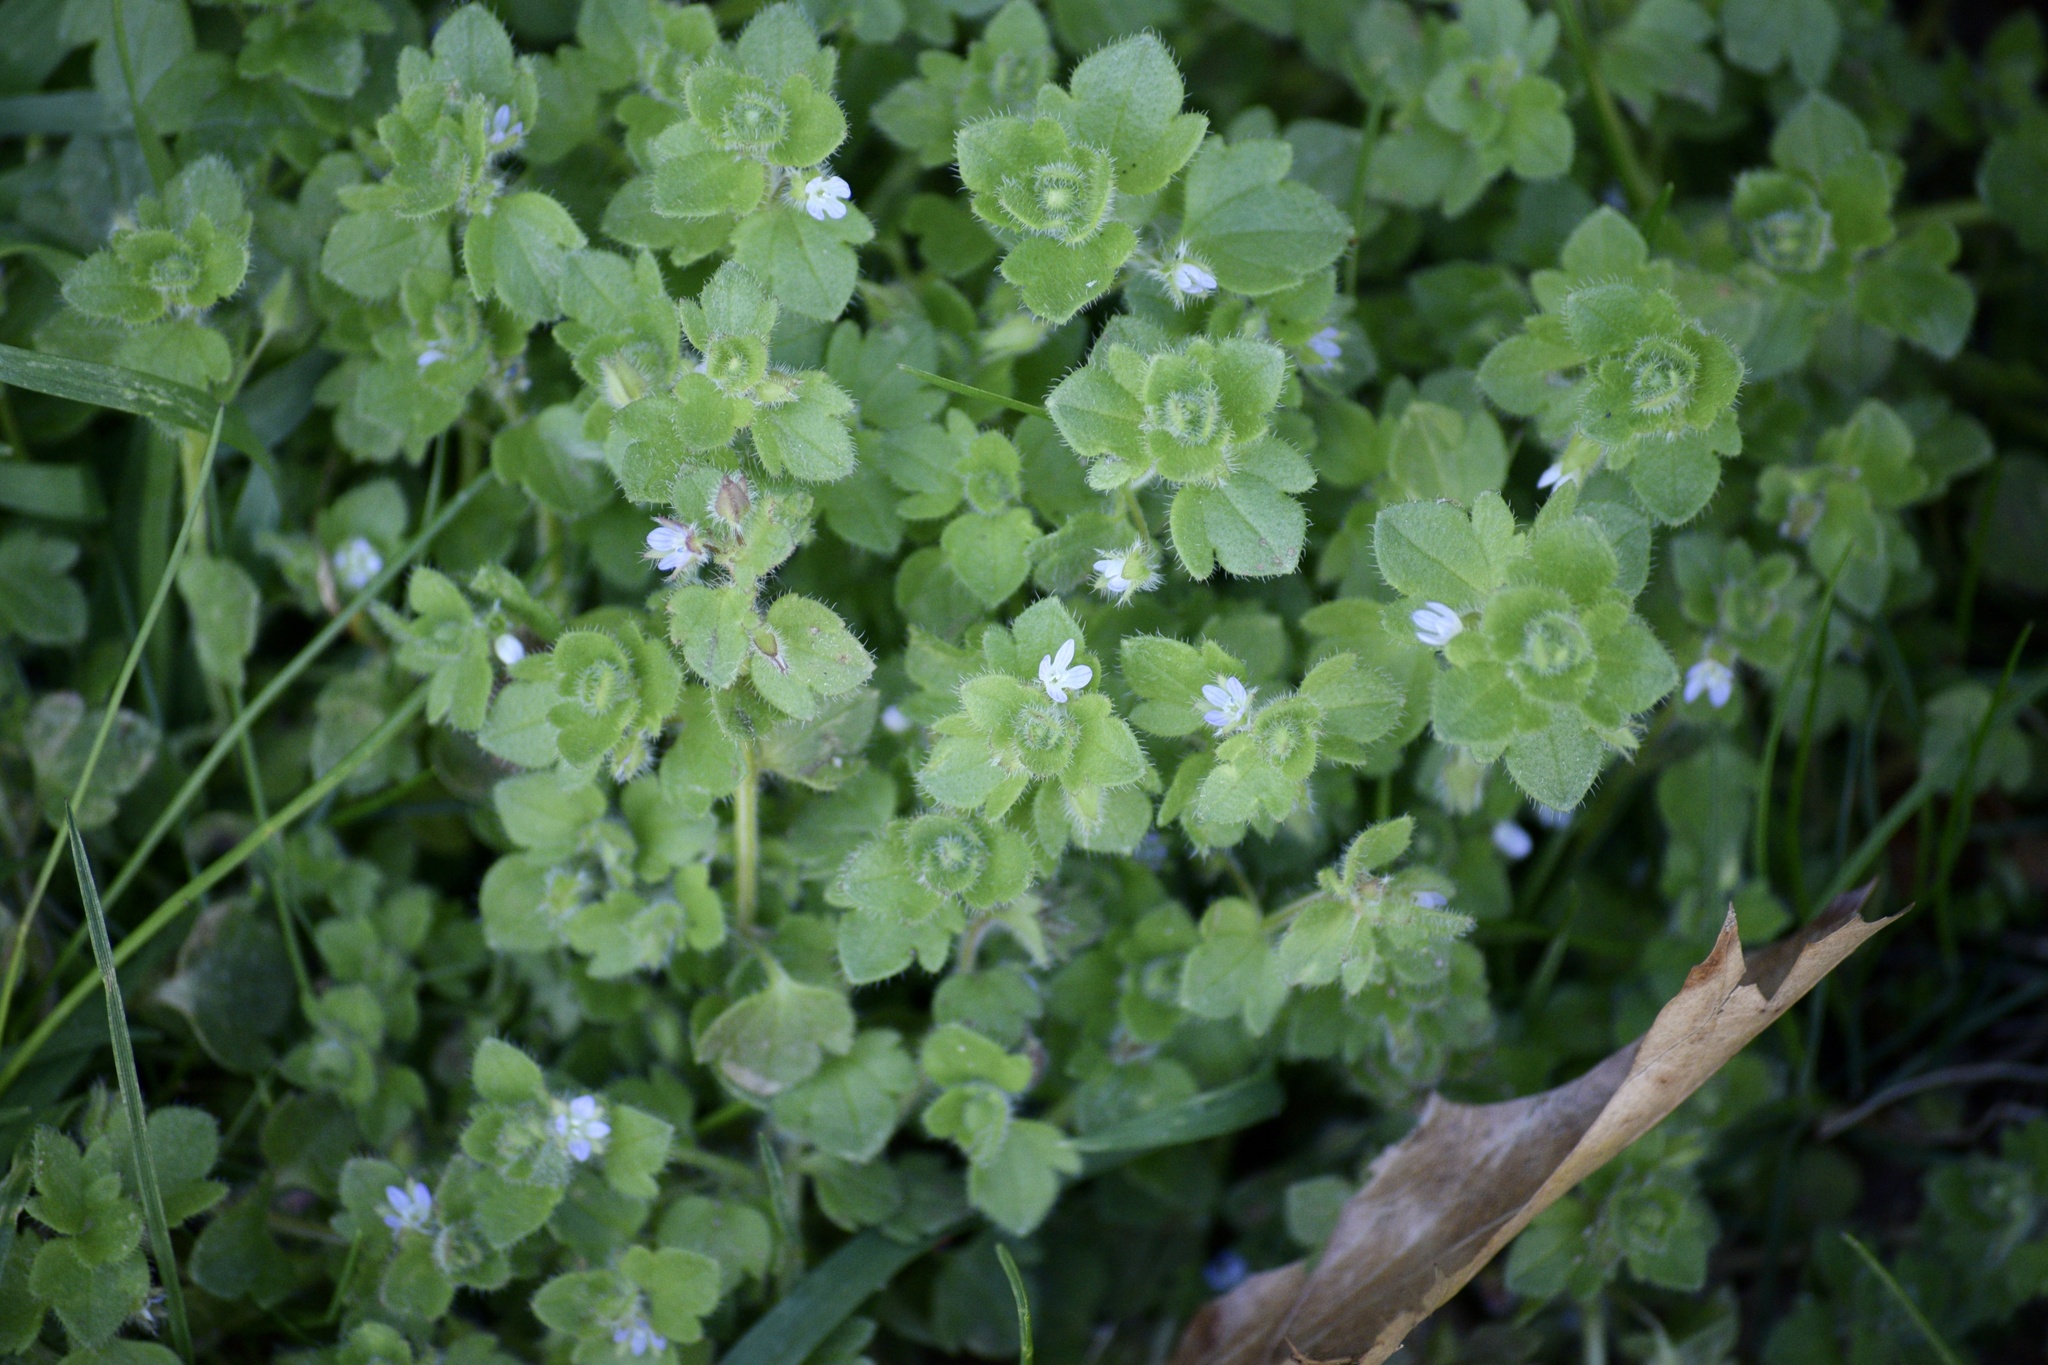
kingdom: Plantae
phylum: Tracheophyta
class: Magnoliopsida
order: Lamiales
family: Plantaginaceae
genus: Veronica
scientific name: Veronica hederifolia
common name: Ivy-leaved speedwell
